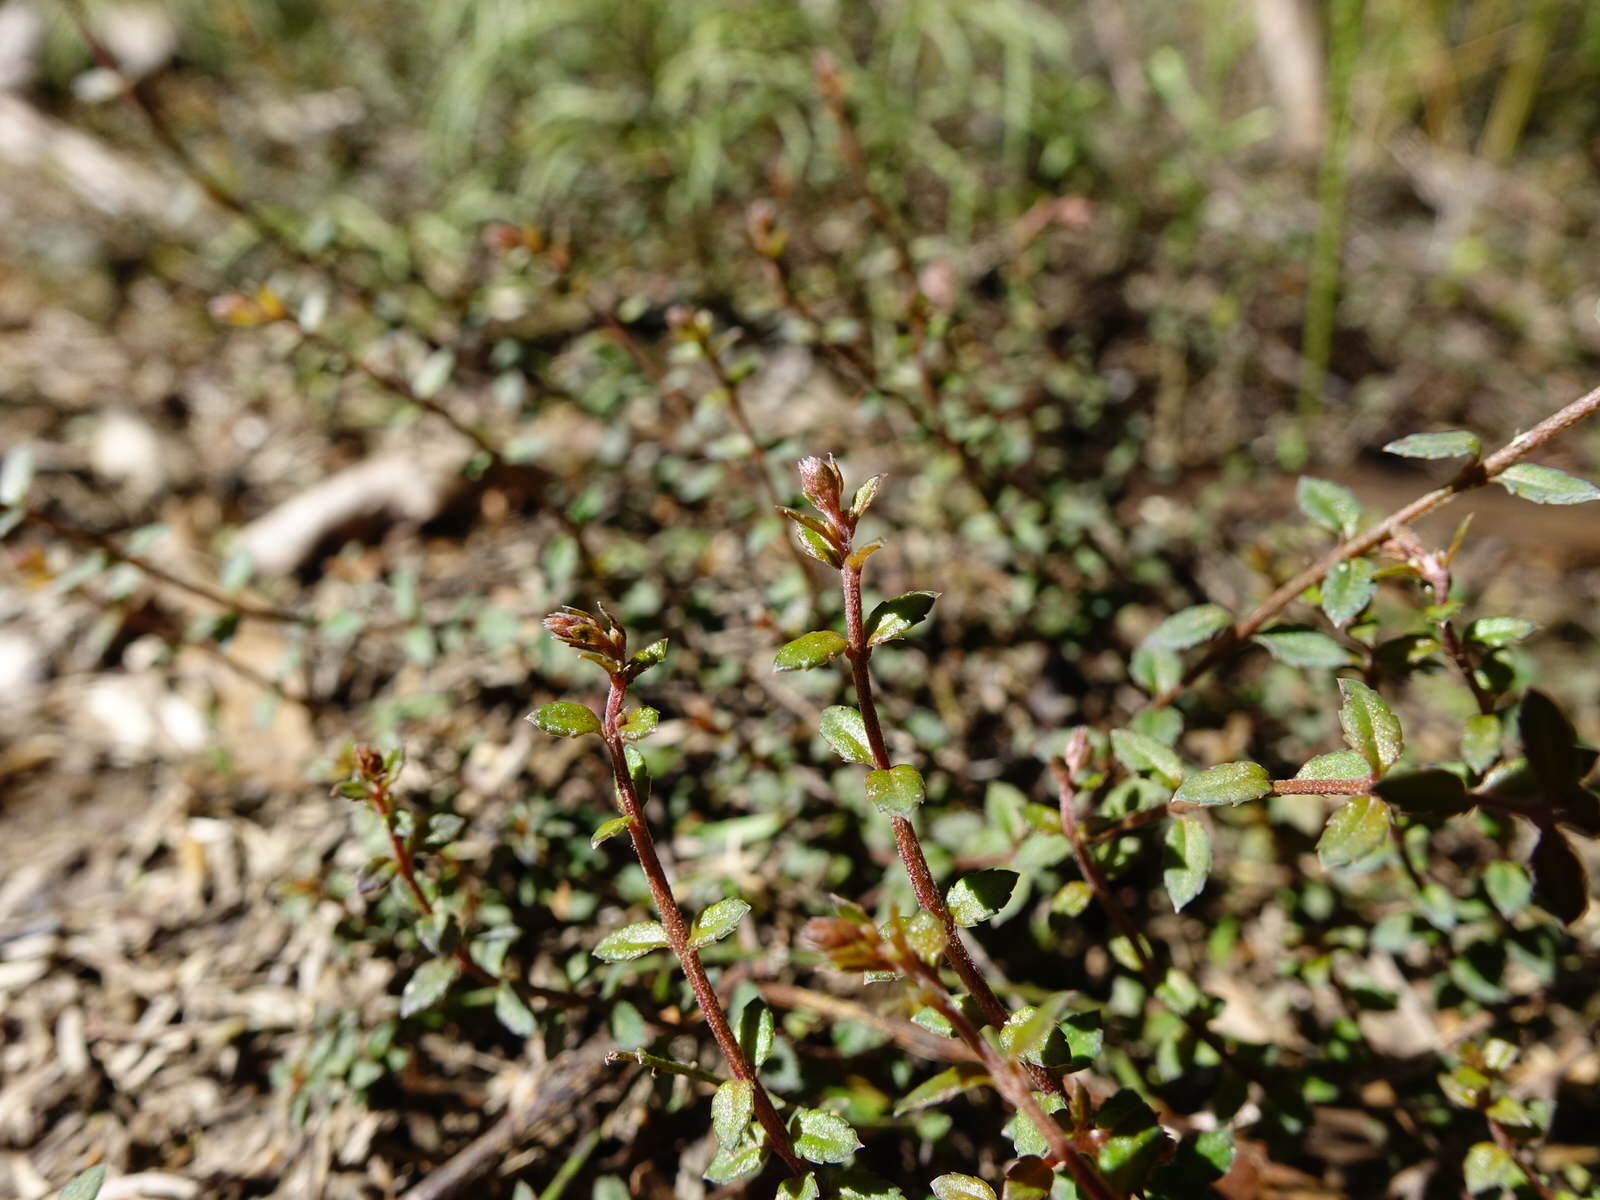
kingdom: Plantae
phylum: Tracheophyta
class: Magnoliopsida
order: Saxifragales
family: Haloragaceae
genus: Gonocarpus
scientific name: Gonocarpus incanus
